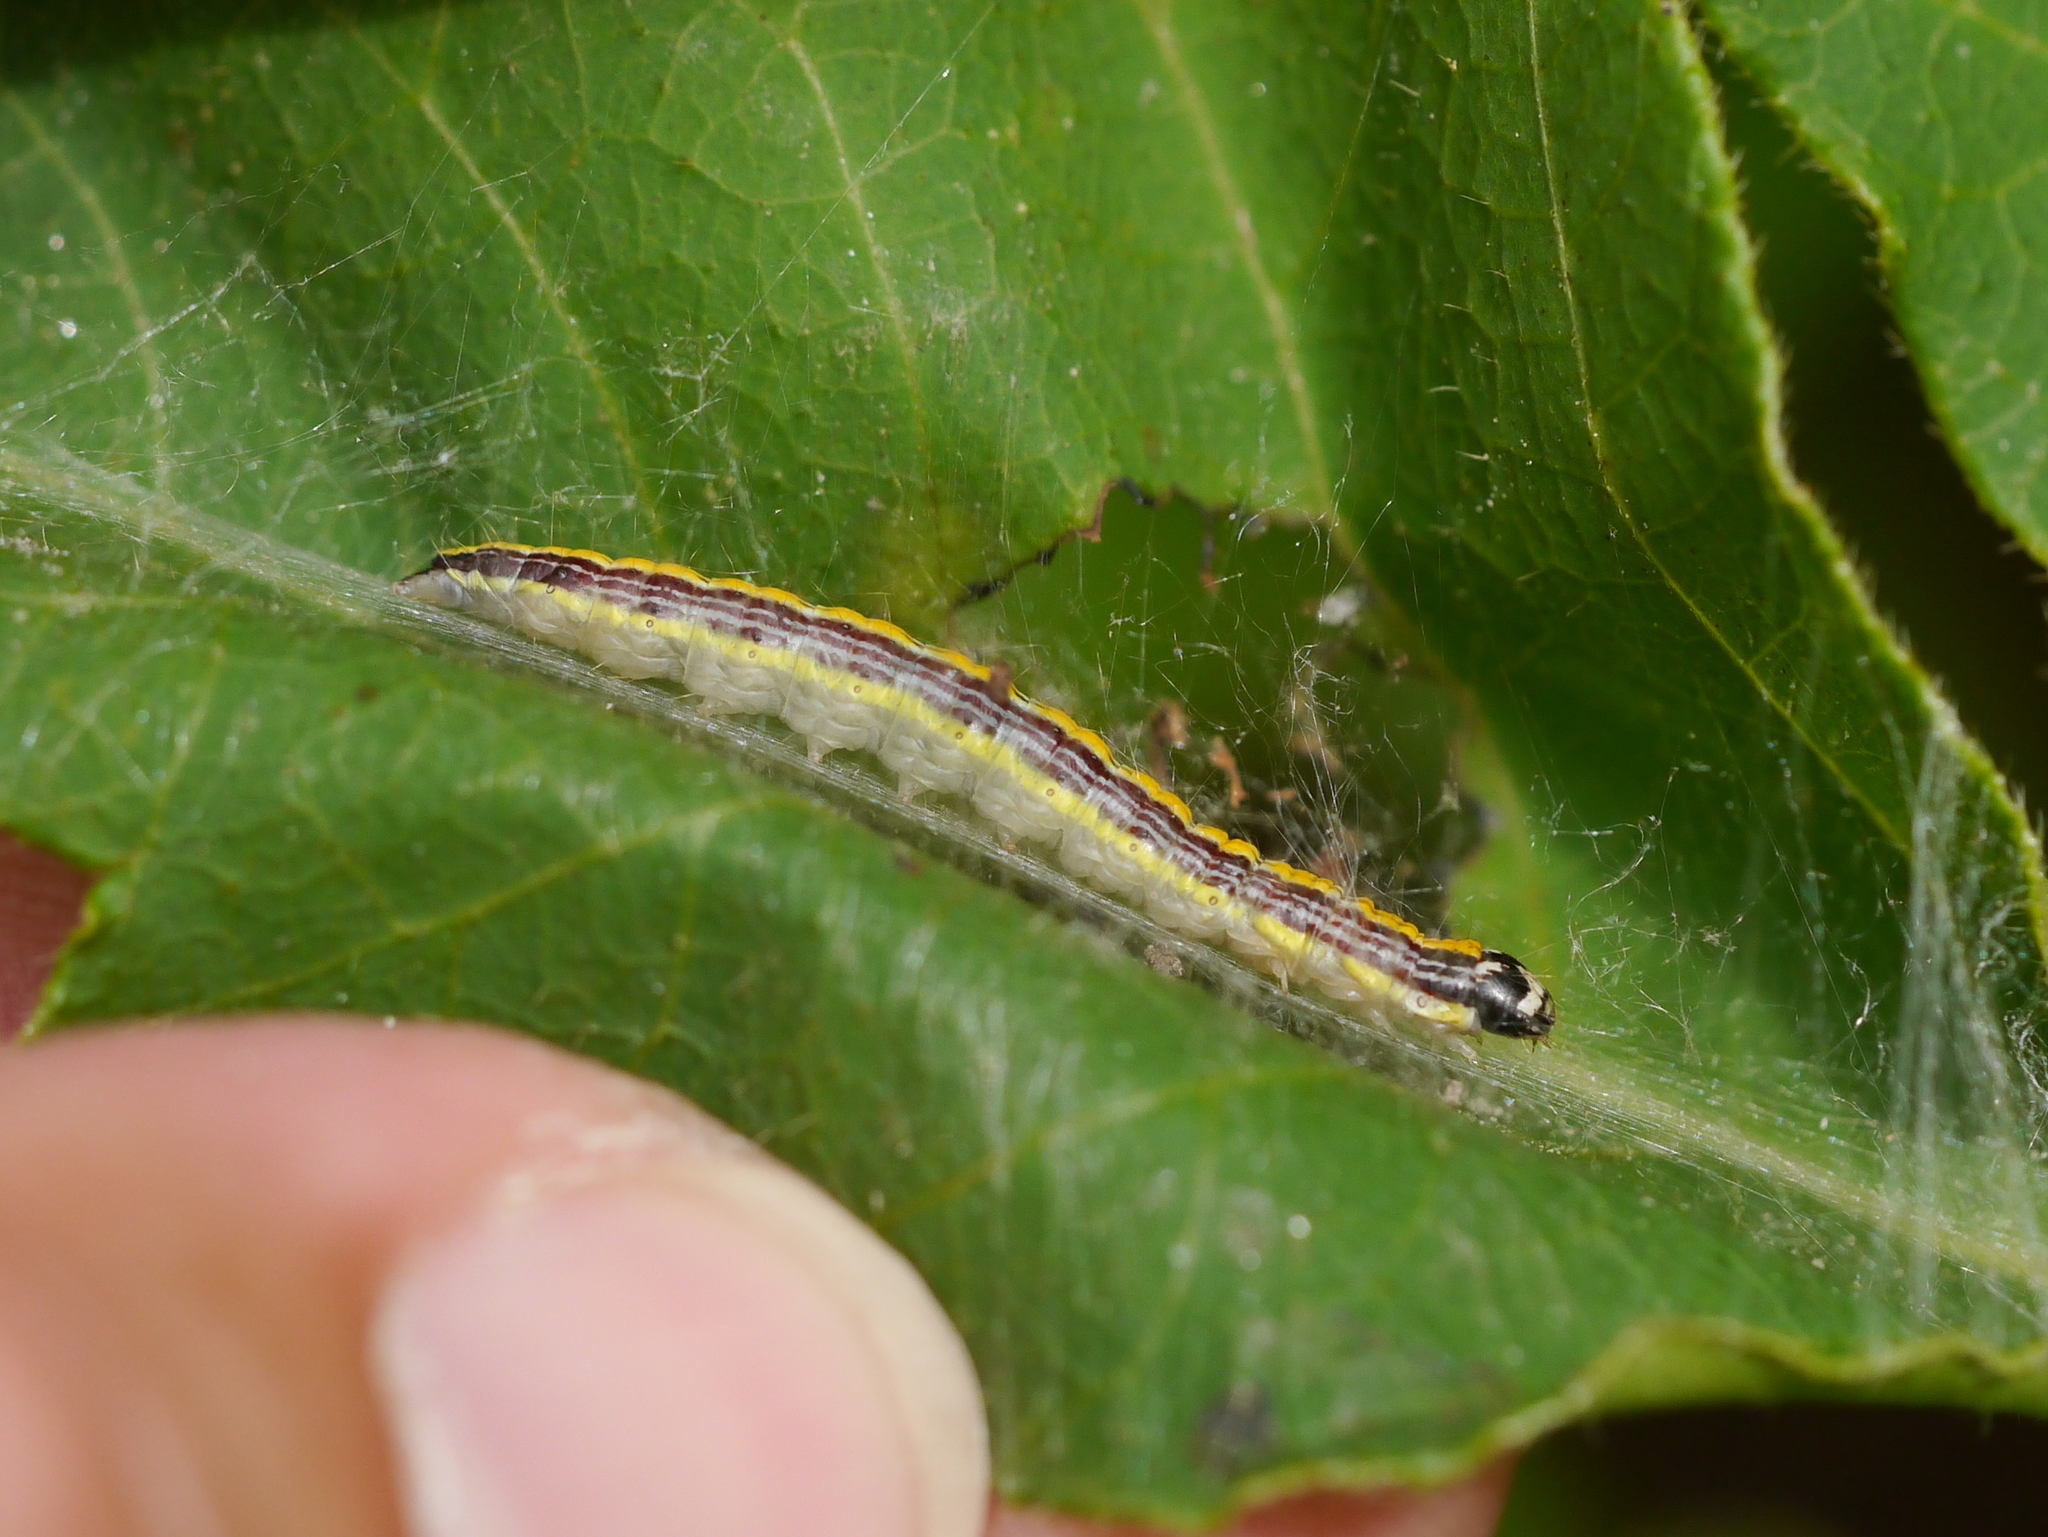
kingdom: Animalia
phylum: Arthropoda
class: Insecta
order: Lepidoptera
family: Pyralidae
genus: Epipaschia
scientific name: Epipaschia superatalis
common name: Dimorphic macalla moth
